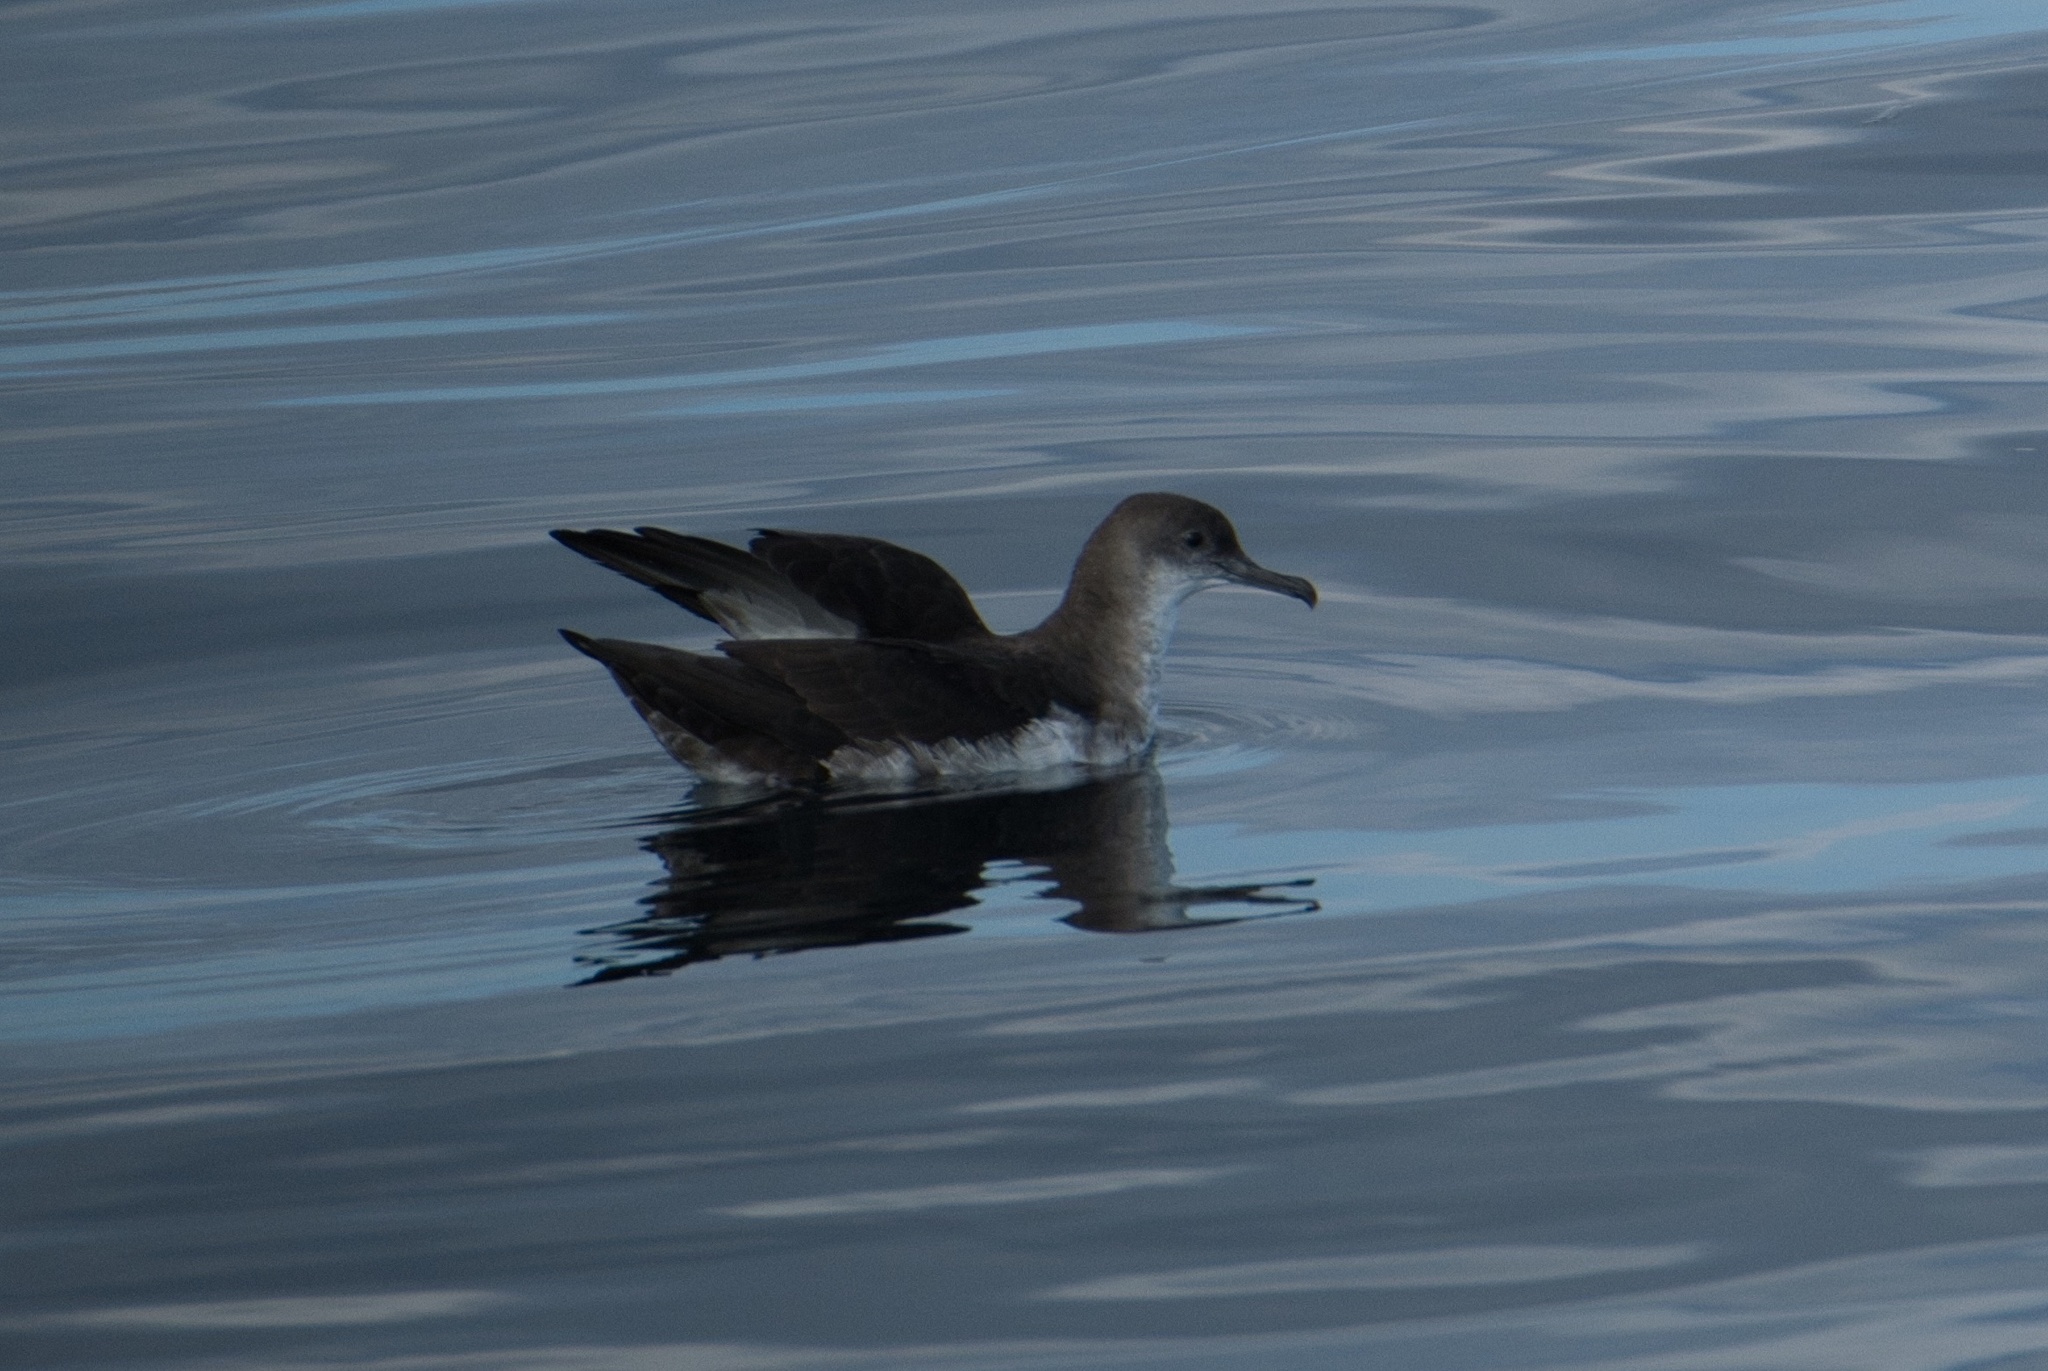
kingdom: Animalia
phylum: Chordata
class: Aves
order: Procellariiformes
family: Procellariidae
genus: Puffinus
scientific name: Puffinus opisthomelas
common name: Black-vented shearwater
